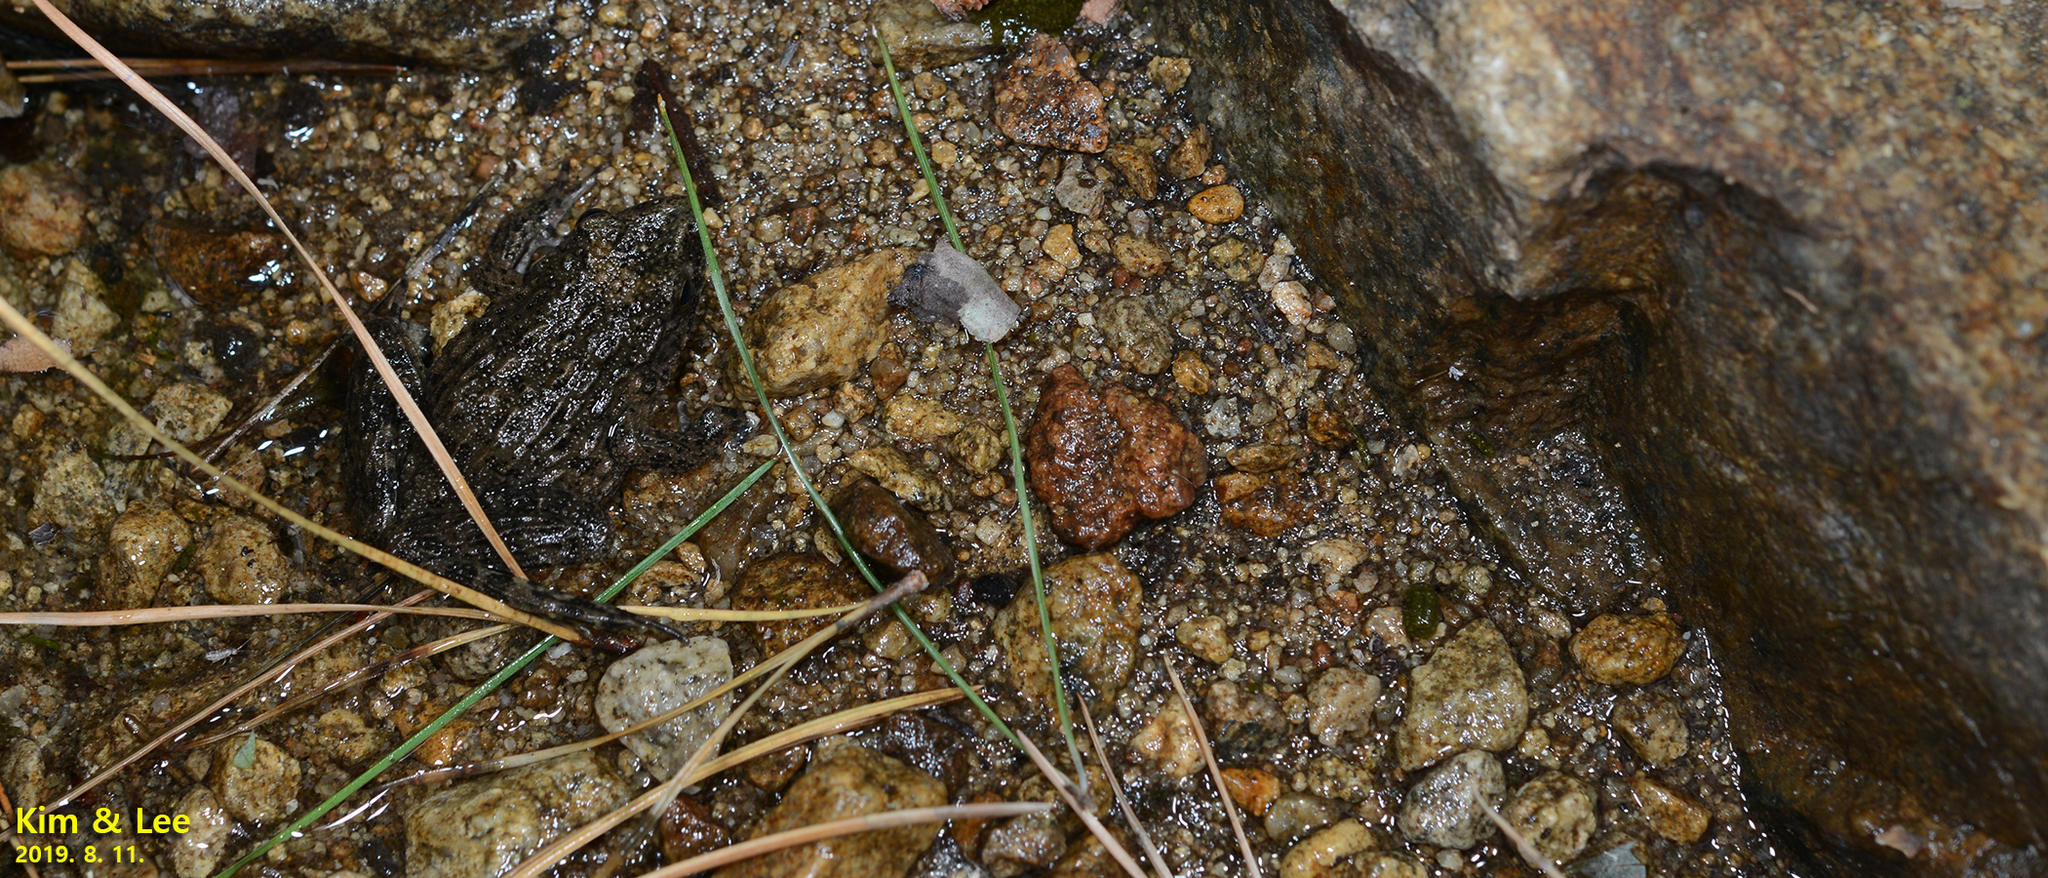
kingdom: Animalia
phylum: Chordata
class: Amphibia
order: Anura
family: Ranidae
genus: Glandirana
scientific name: Glandirana emeljanovi
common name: Northeast china rough-skinned frog
